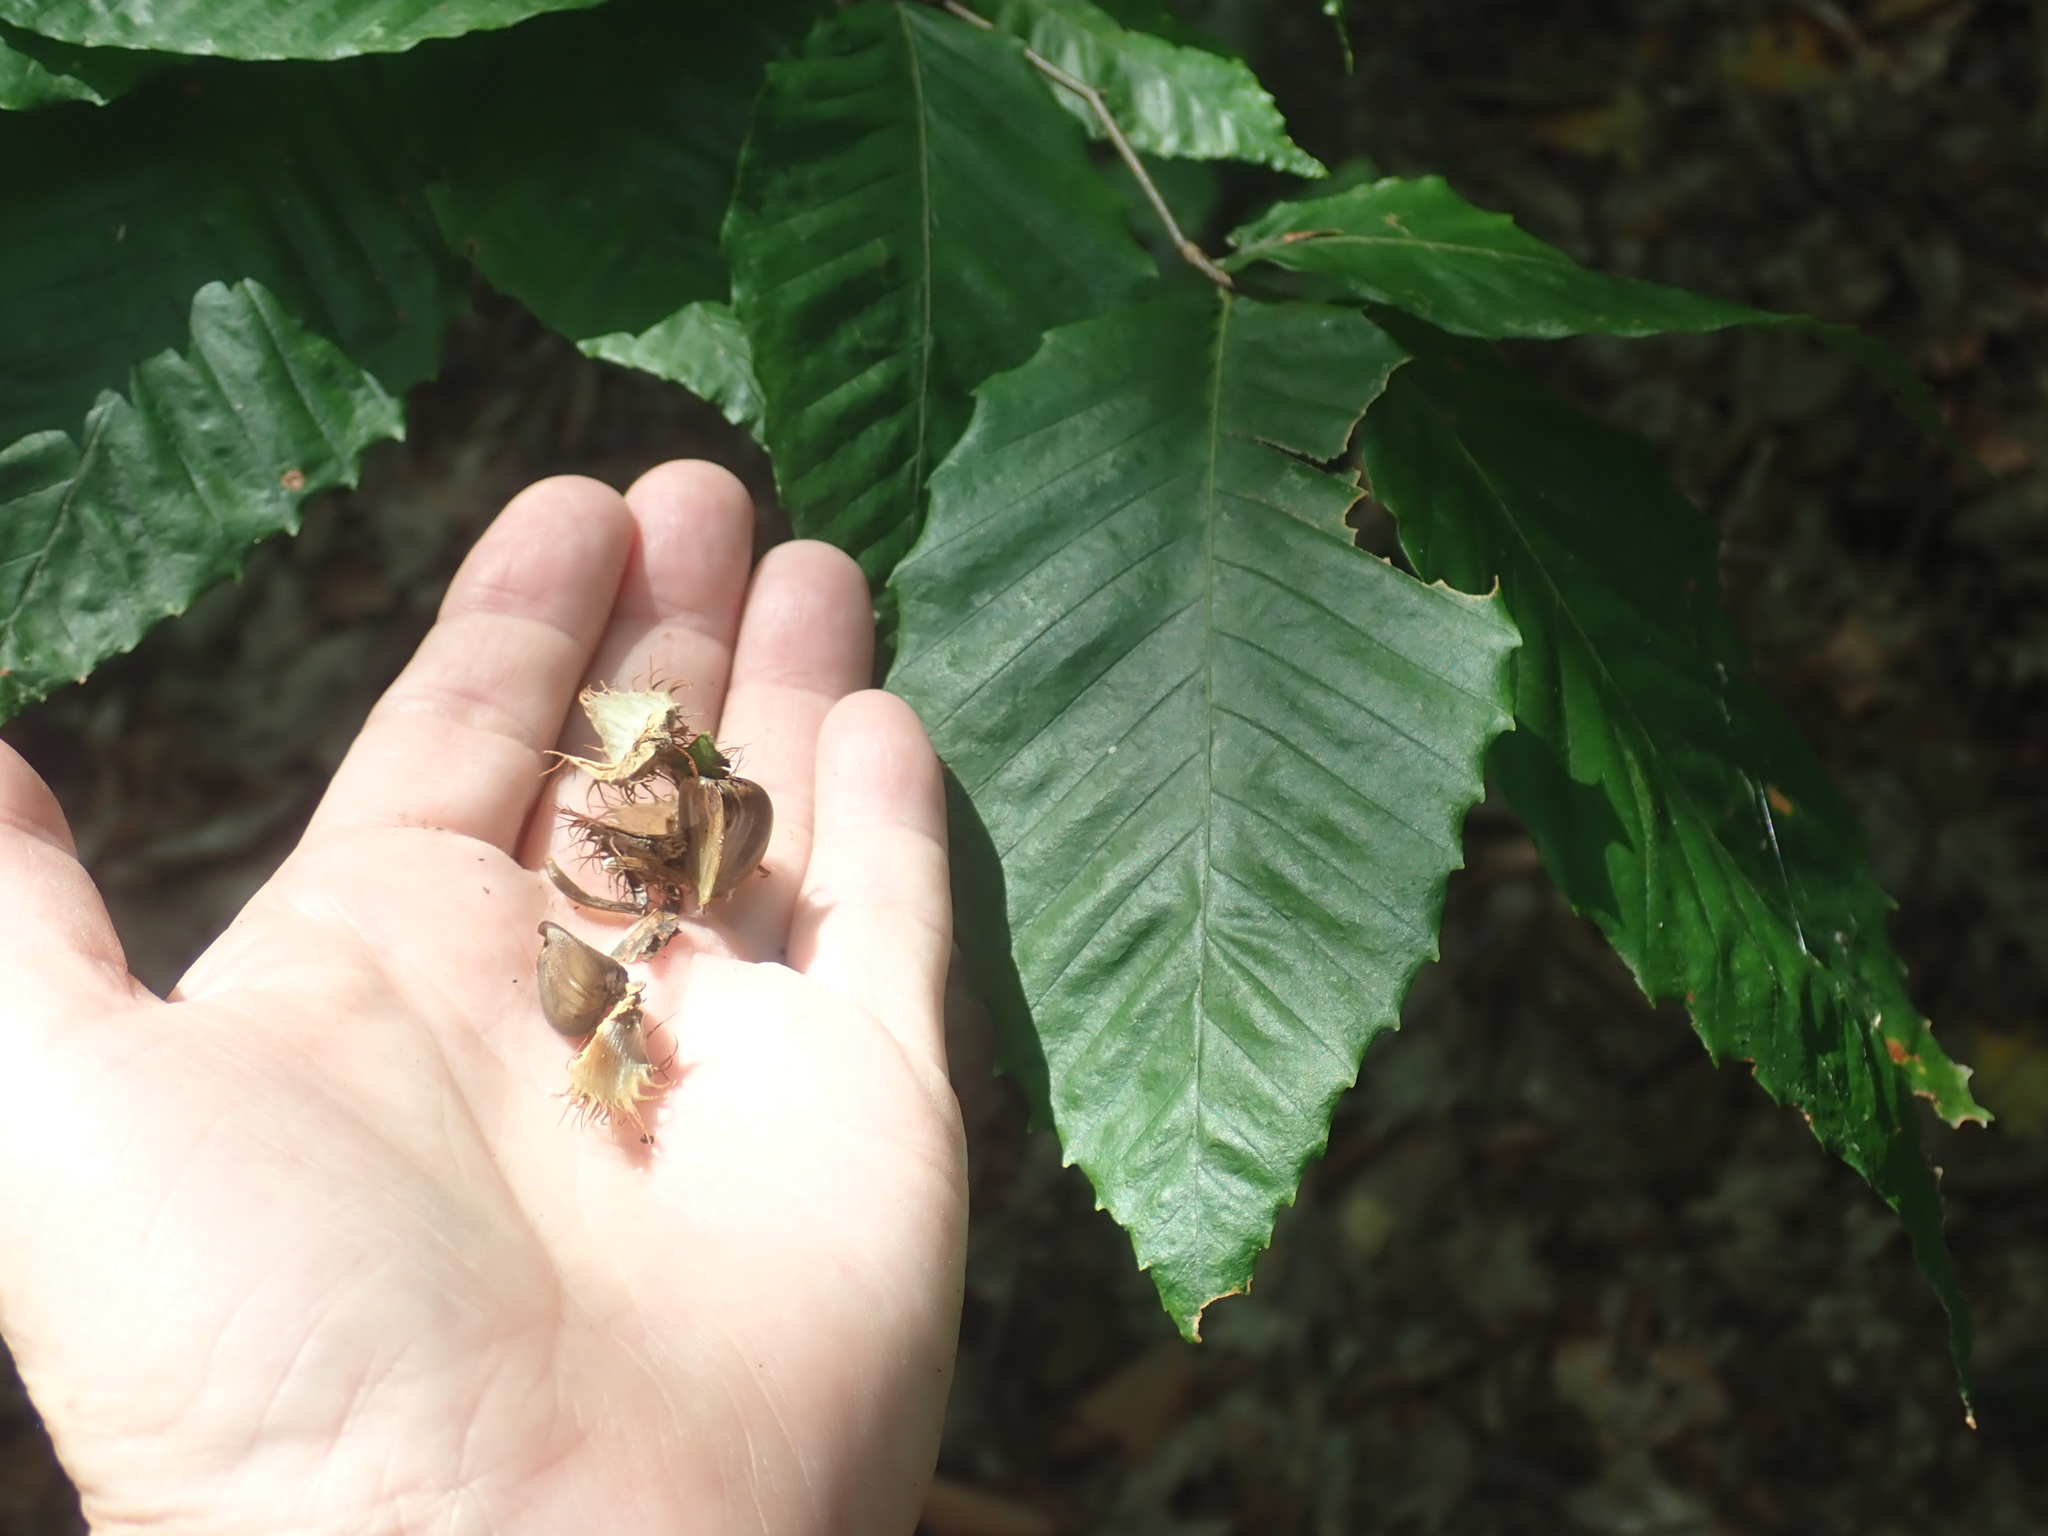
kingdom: Plantae
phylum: Tracheophyta
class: Magnoliopsida
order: Fagales
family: Fagaceae
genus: Fagus
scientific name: Fagus grandifolia
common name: American beech
